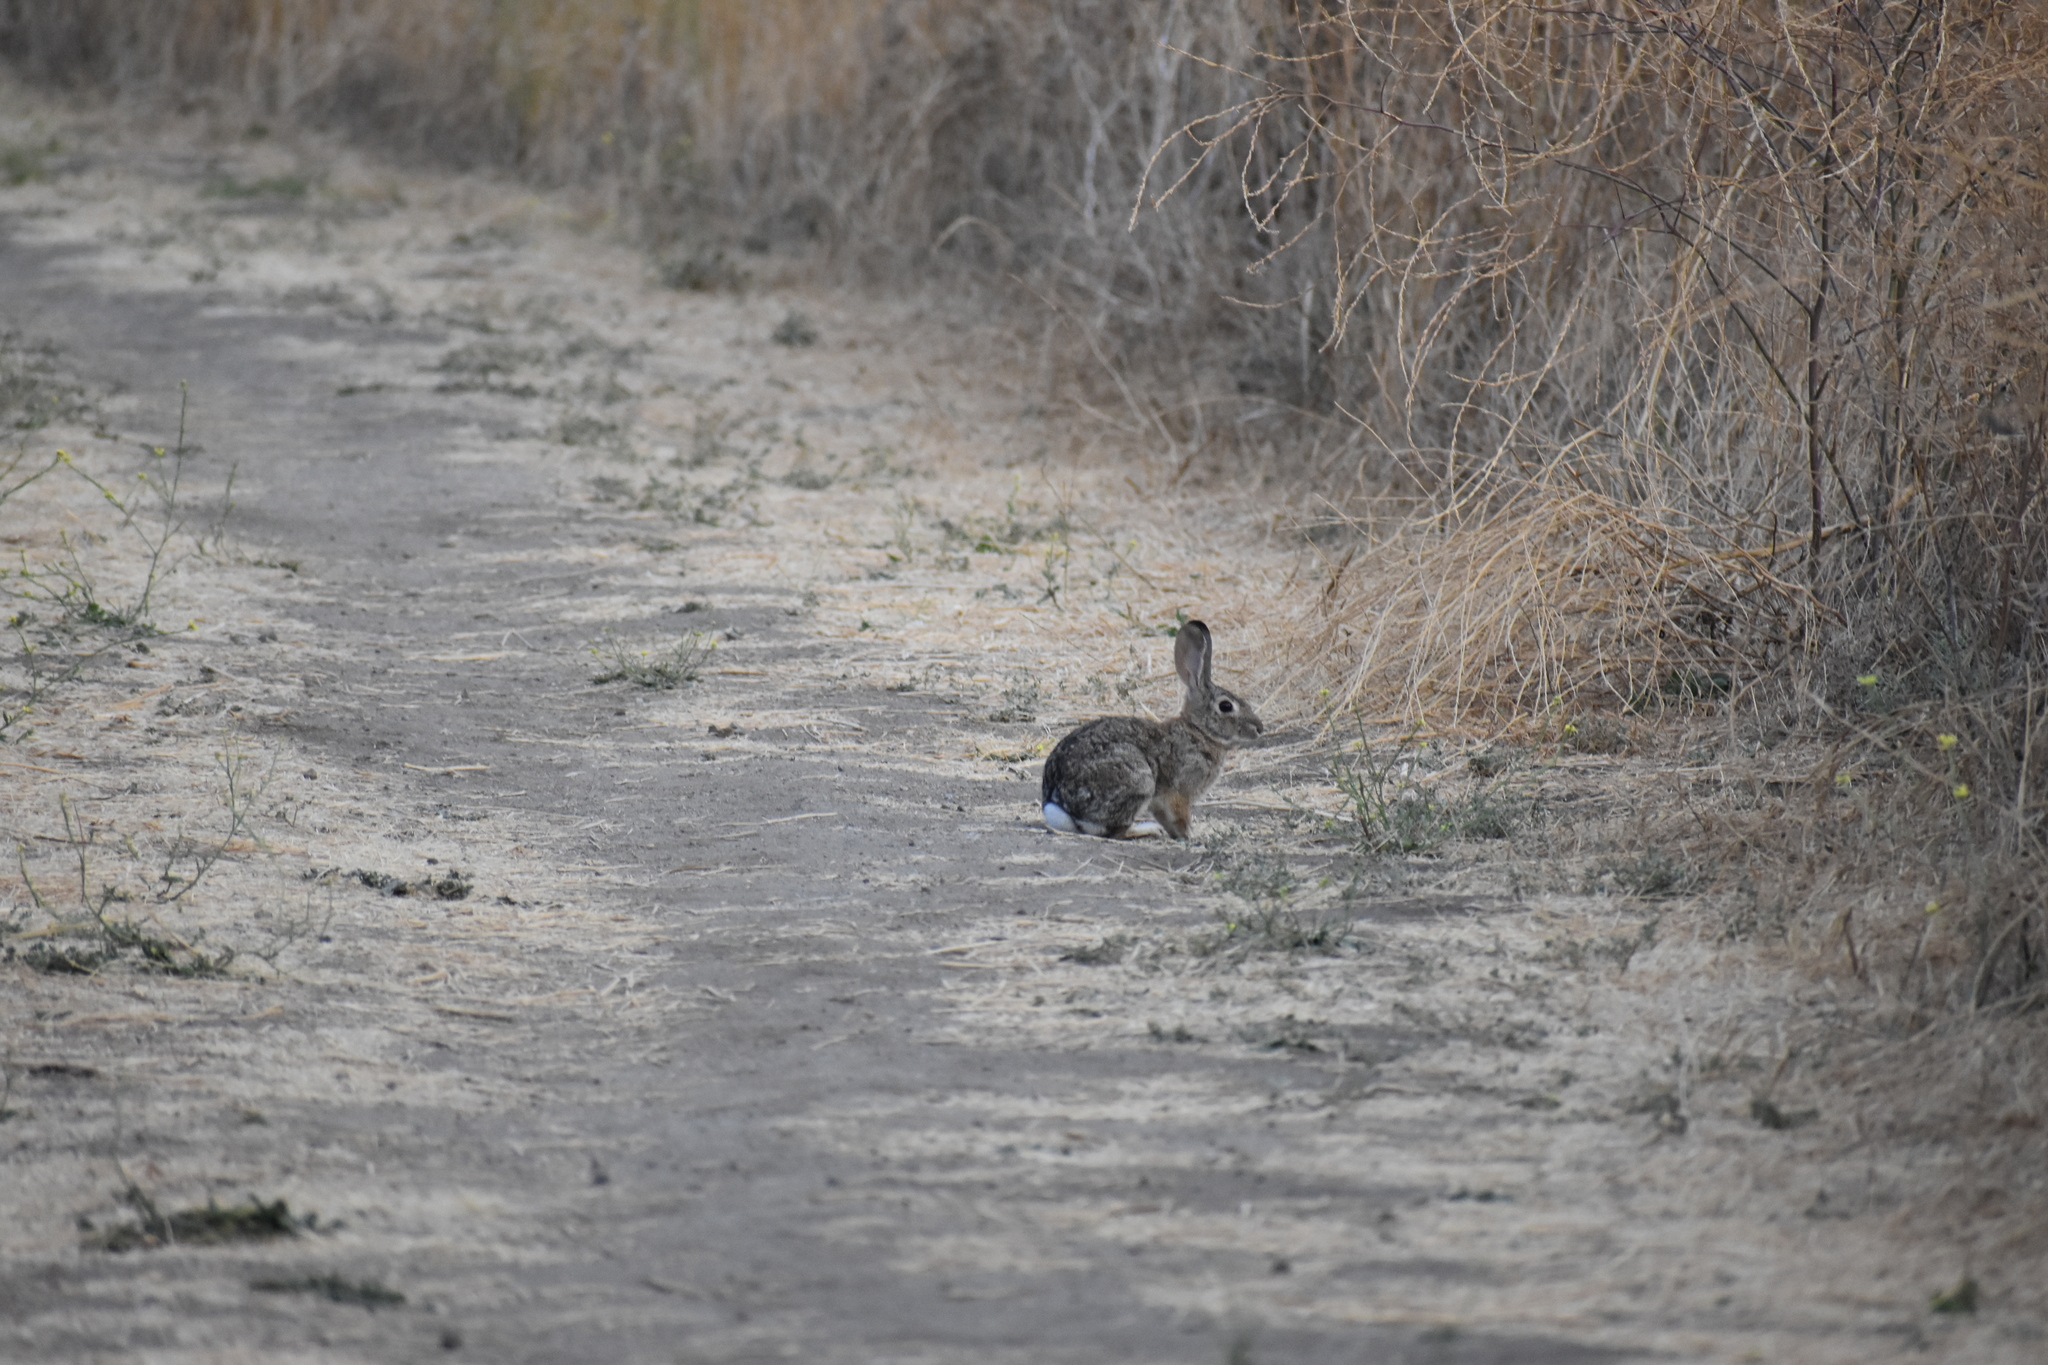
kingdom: Animalia
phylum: Chordata
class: Mammalia
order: Lagomorpha
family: Leporidae
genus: Sylvilagus
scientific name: Sylvilagus audubonii
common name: Desert cottontail
